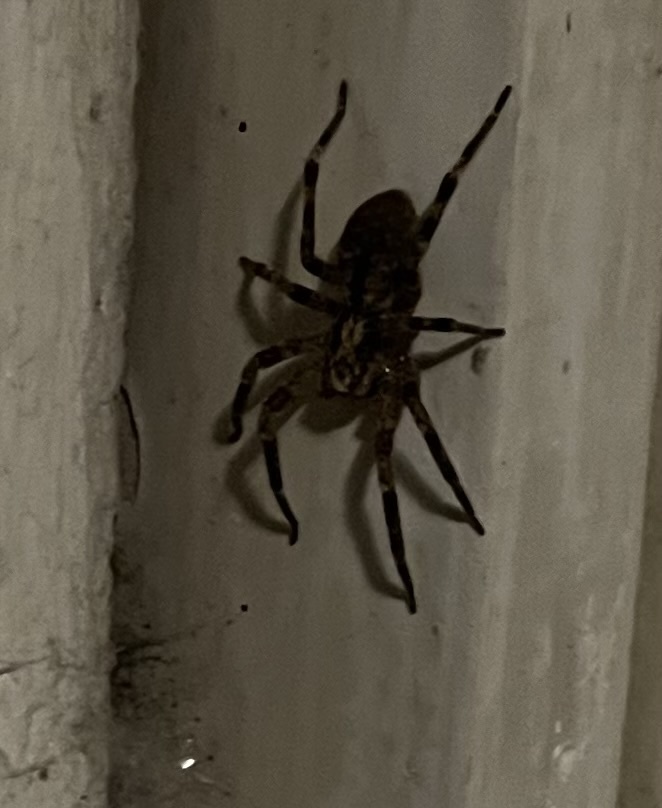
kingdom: Animalia
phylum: Arthropoda
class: Arachnida
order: Araneae
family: Zoropsidae
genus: Zoropsis
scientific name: Zoropsis spinimana
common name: Zoropsid spider
